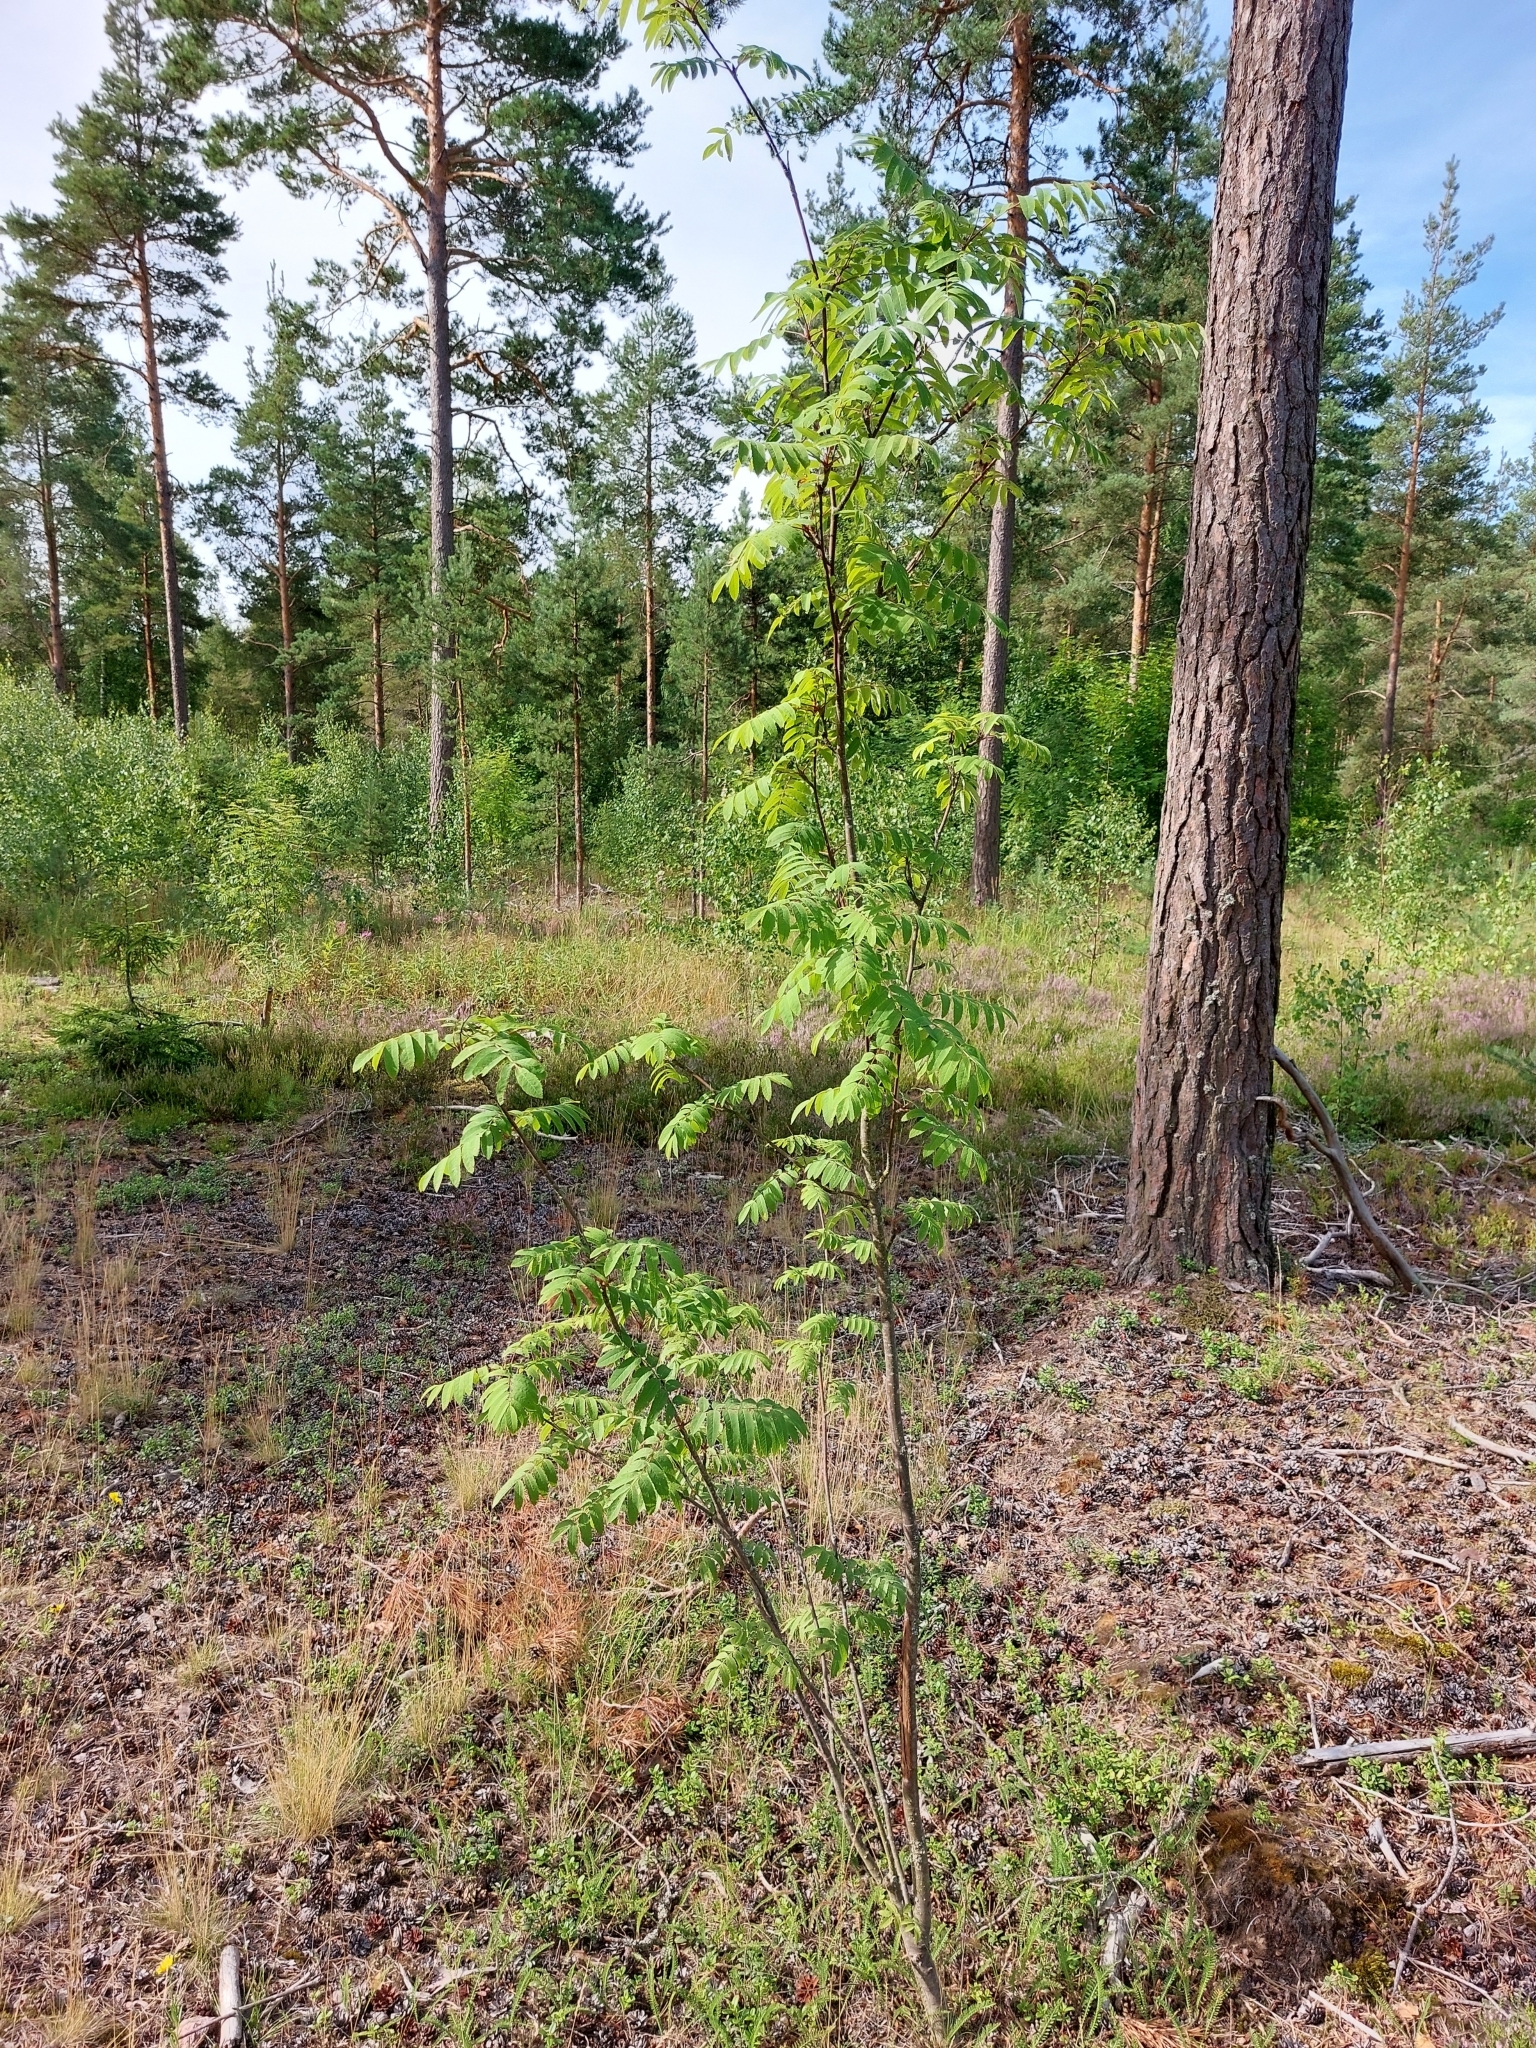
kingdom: Plantae
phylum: Tracheophyta
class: Magnoliopsida
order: Rosales
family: Rosaceae
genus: Sorbus
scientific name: Sorbus aucuparia
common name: Rowan
